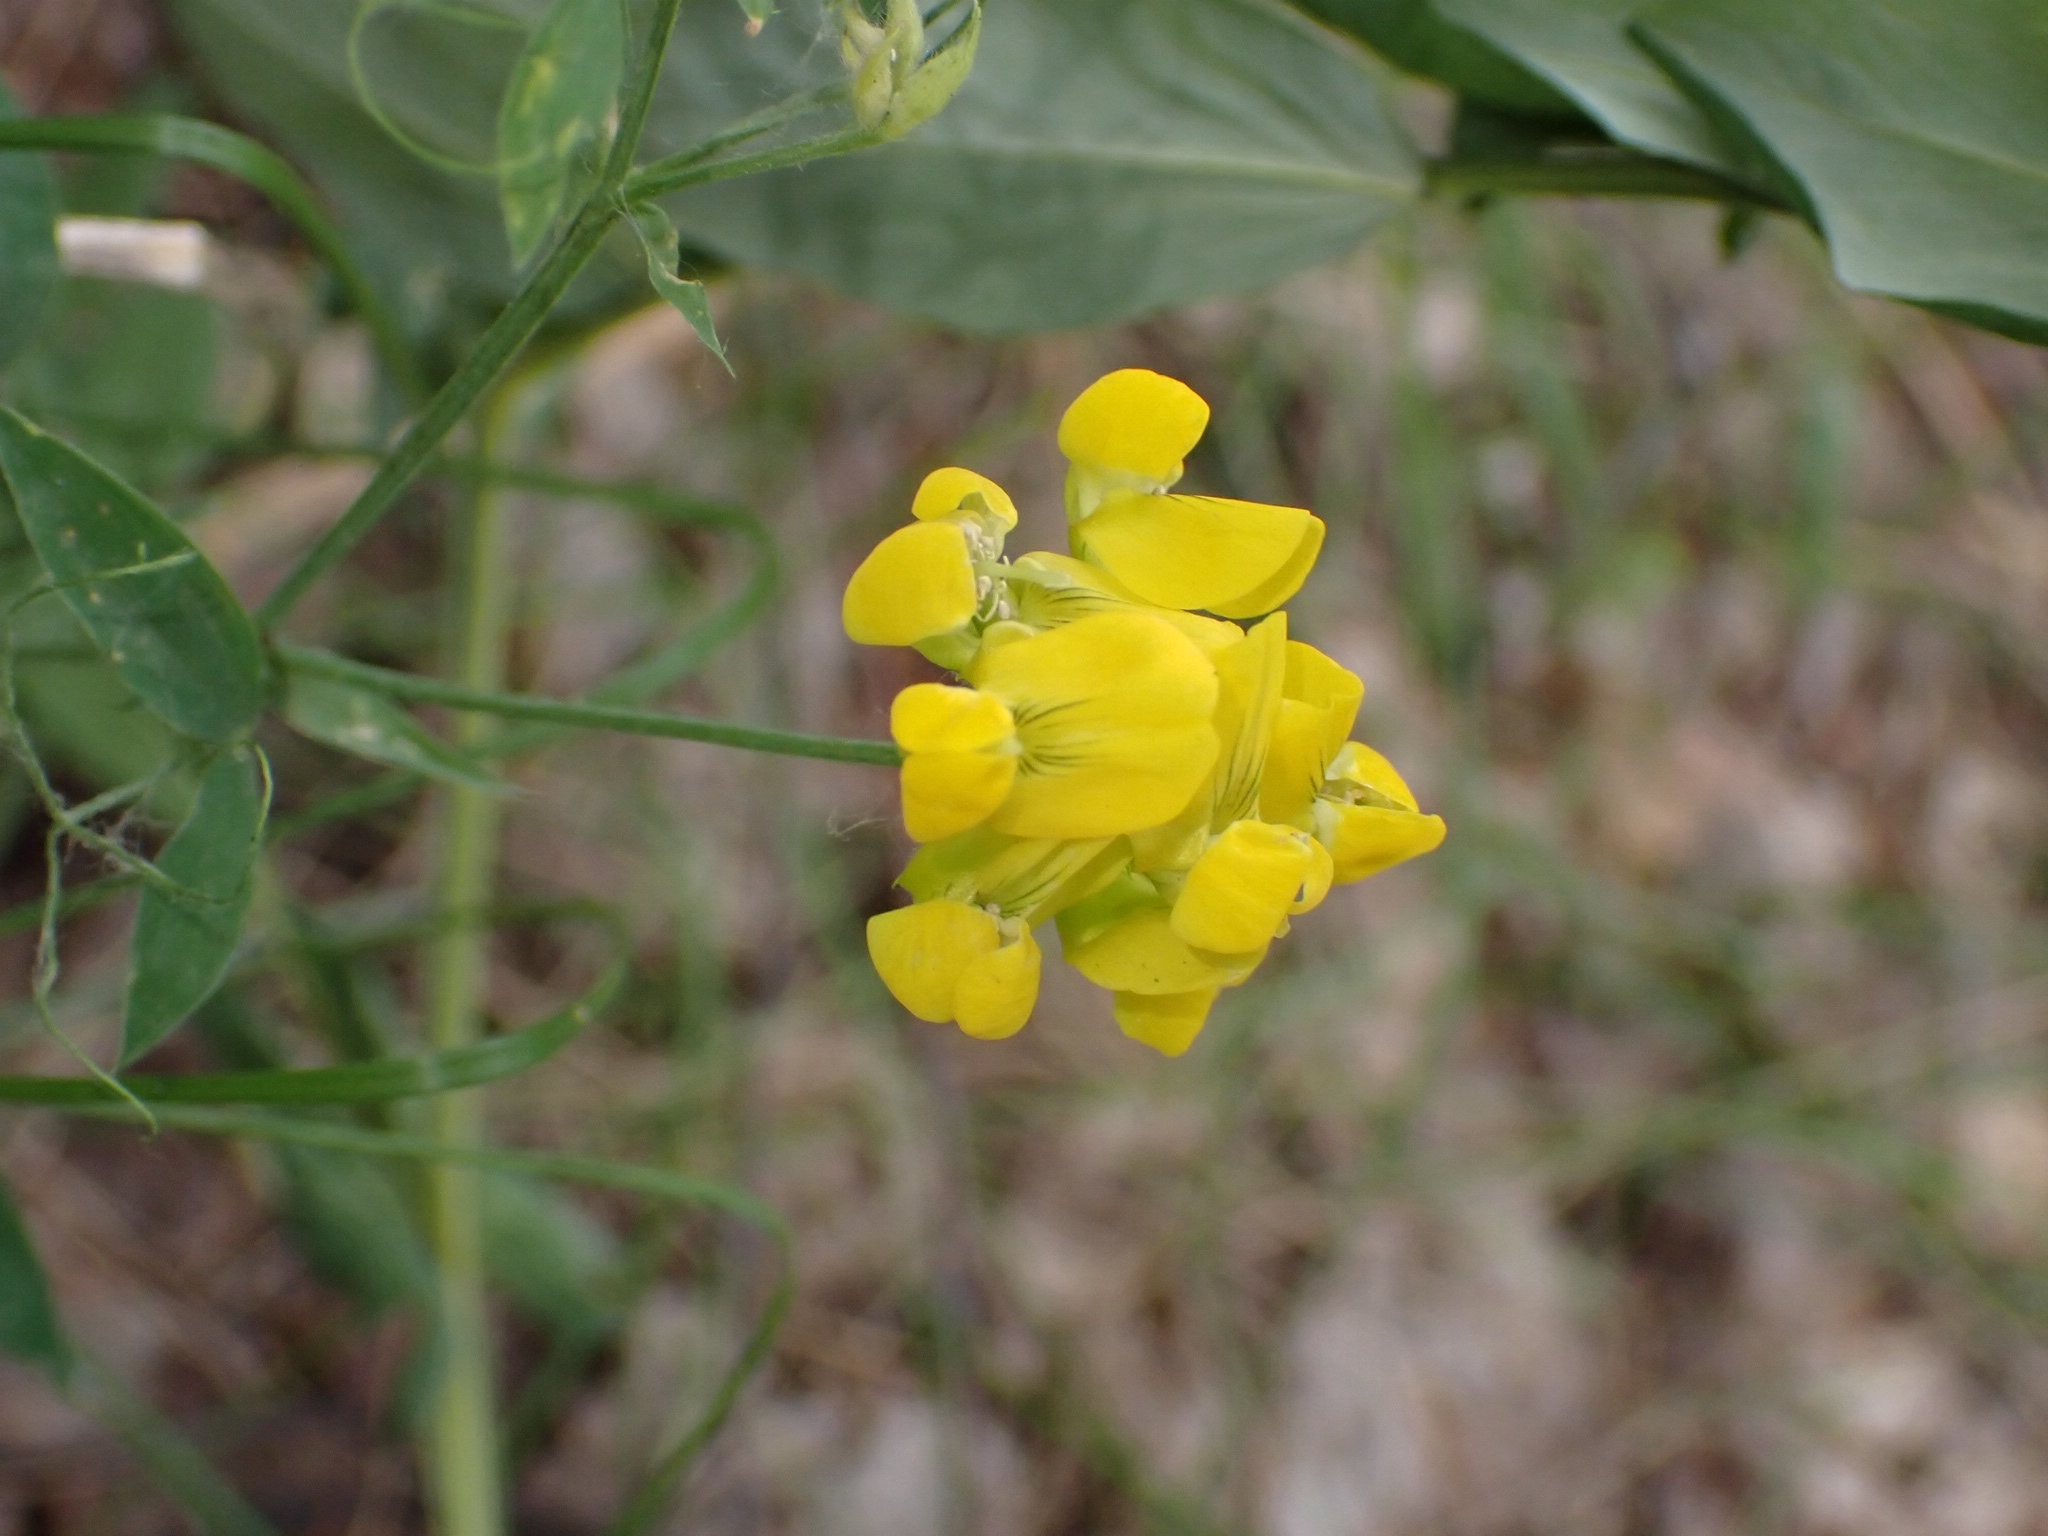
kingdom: Plantae
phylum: Tracheophyta
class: Magnoliopsida
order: Fabales
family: Fabaceae
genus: Lathyrus
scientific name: Lathyrus pratensis
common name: Meadow vetchling
